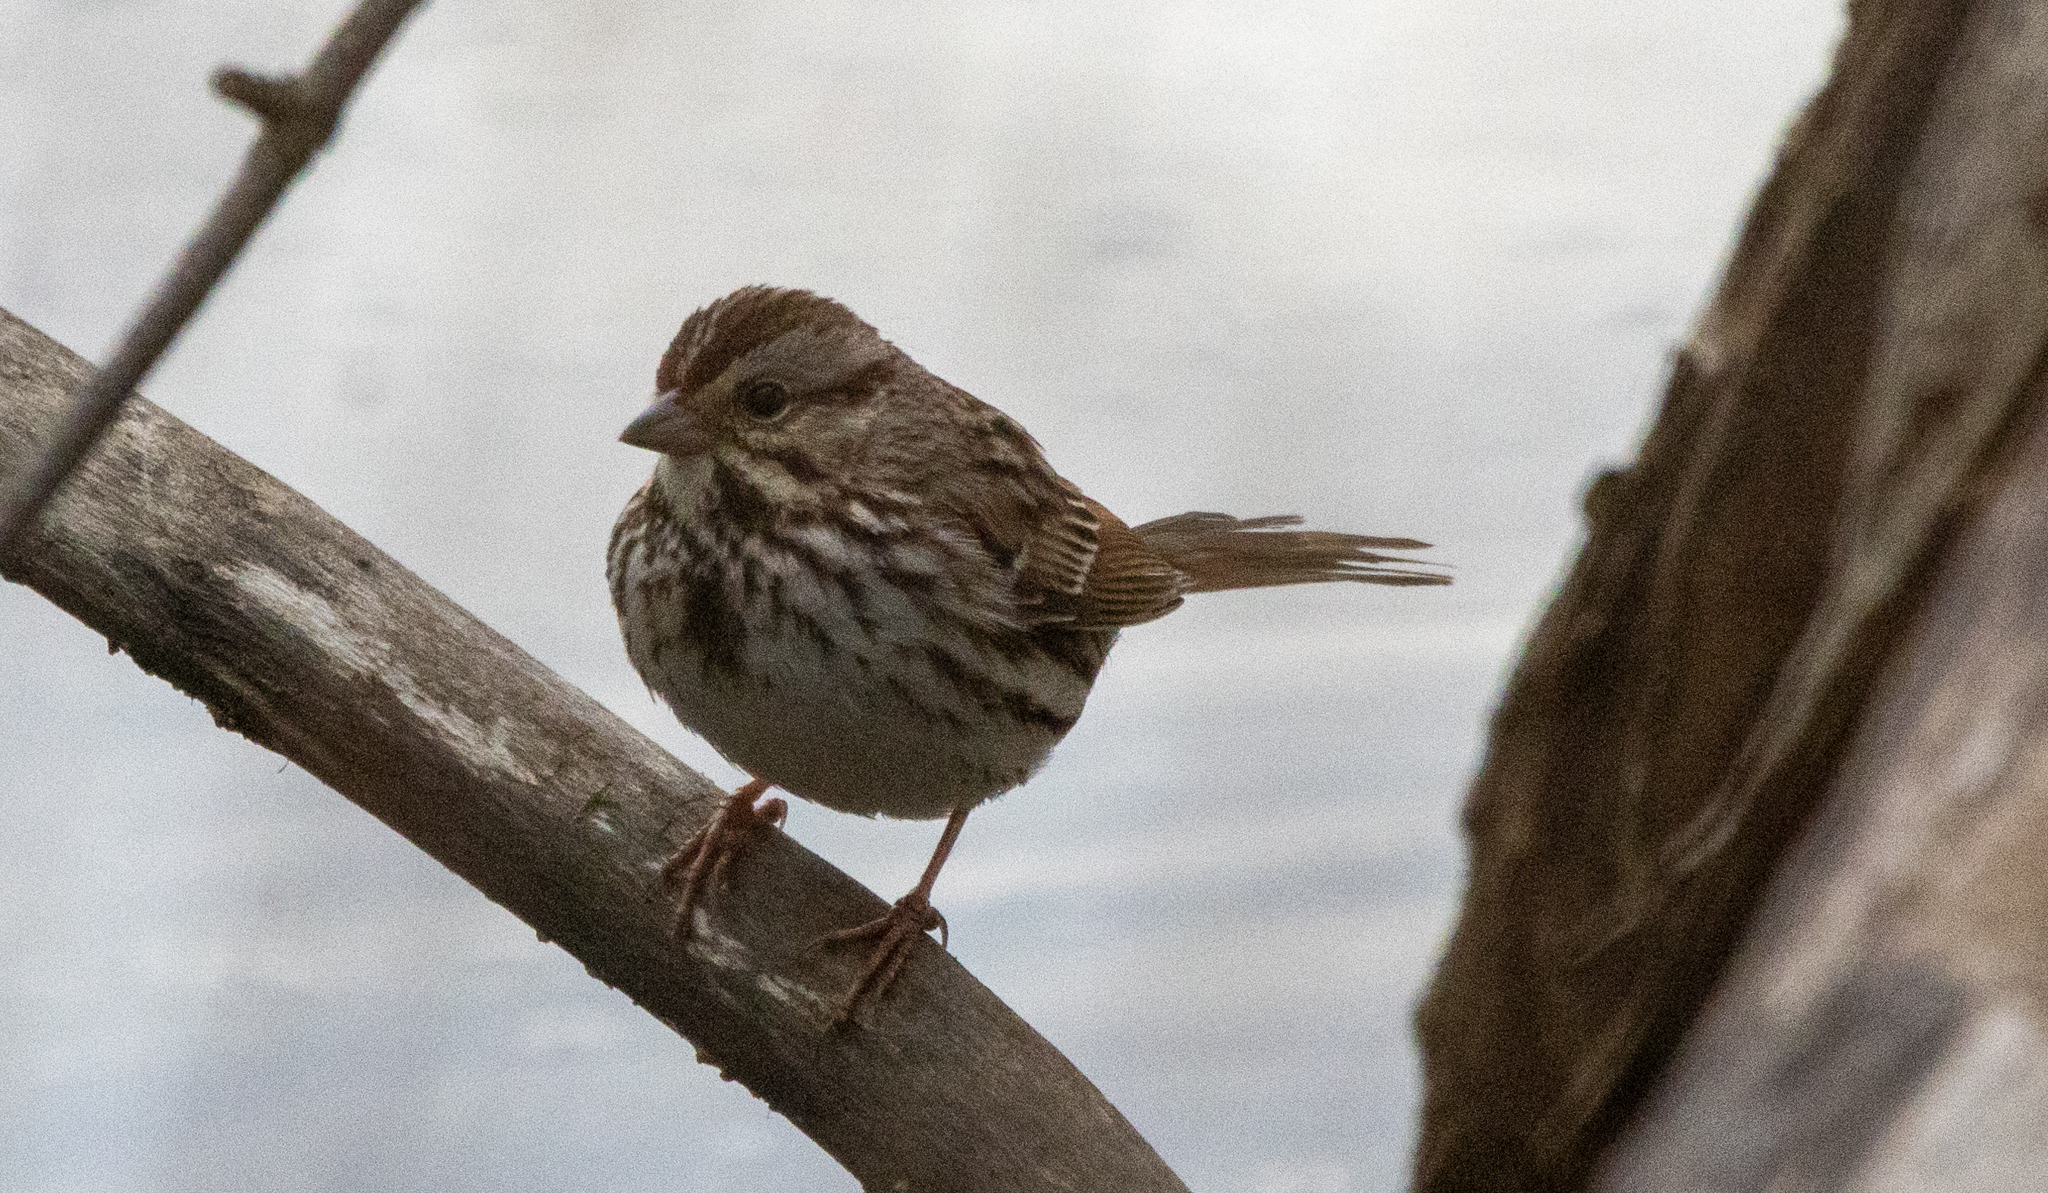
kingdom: Animalia
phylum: Chordata
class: Aves
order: Passeriformes
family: Passerellidae
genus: Melospiza
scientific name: Melospiza melodia
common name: Song sparrow
